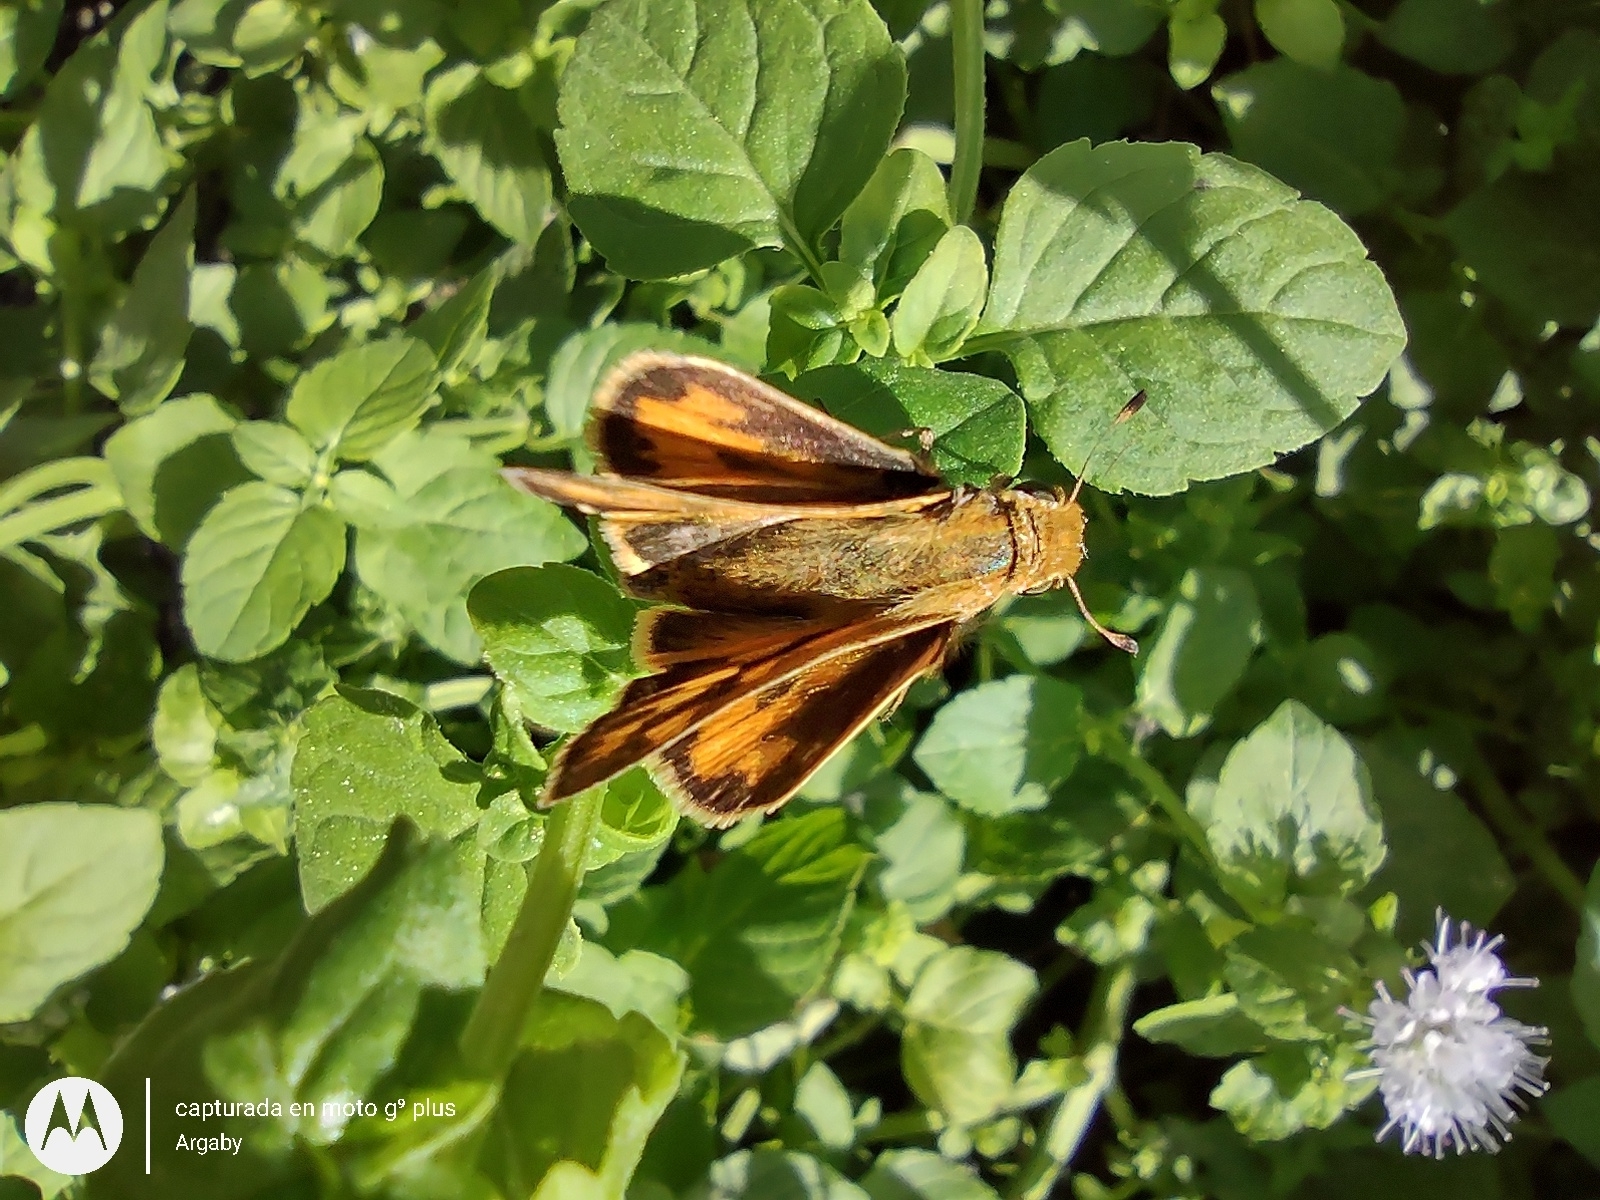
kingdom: Animalia
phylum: Arthropoda
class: Insecta
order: Lepidoptera
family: Hesperiidae
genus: Hylephila
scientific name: Hylephila phyleus
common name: Fiery skipper
